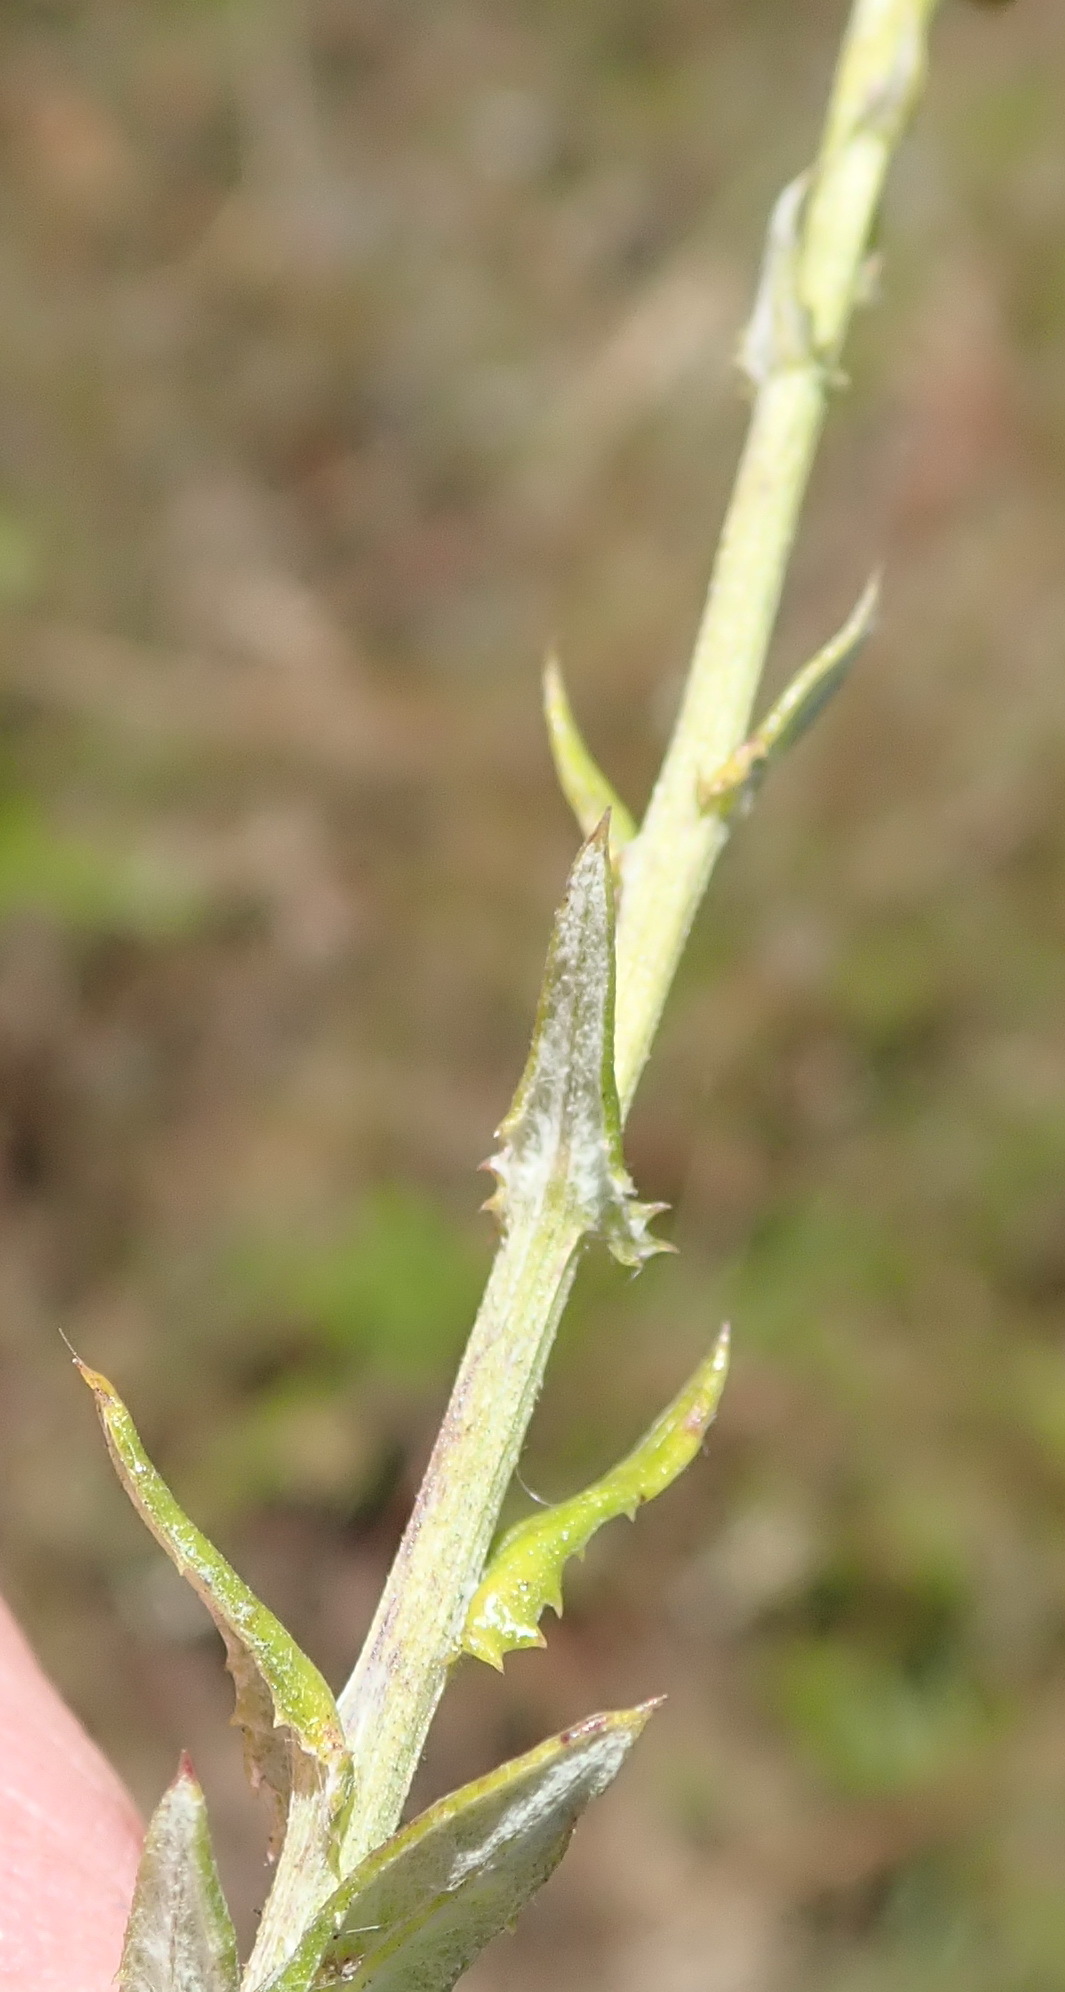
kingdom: Plantae
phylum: Tracheophyta
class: Magnoliopsida
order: Asterales
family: Asteraceae
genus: Senecio
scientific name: Senecio ilicifolius
